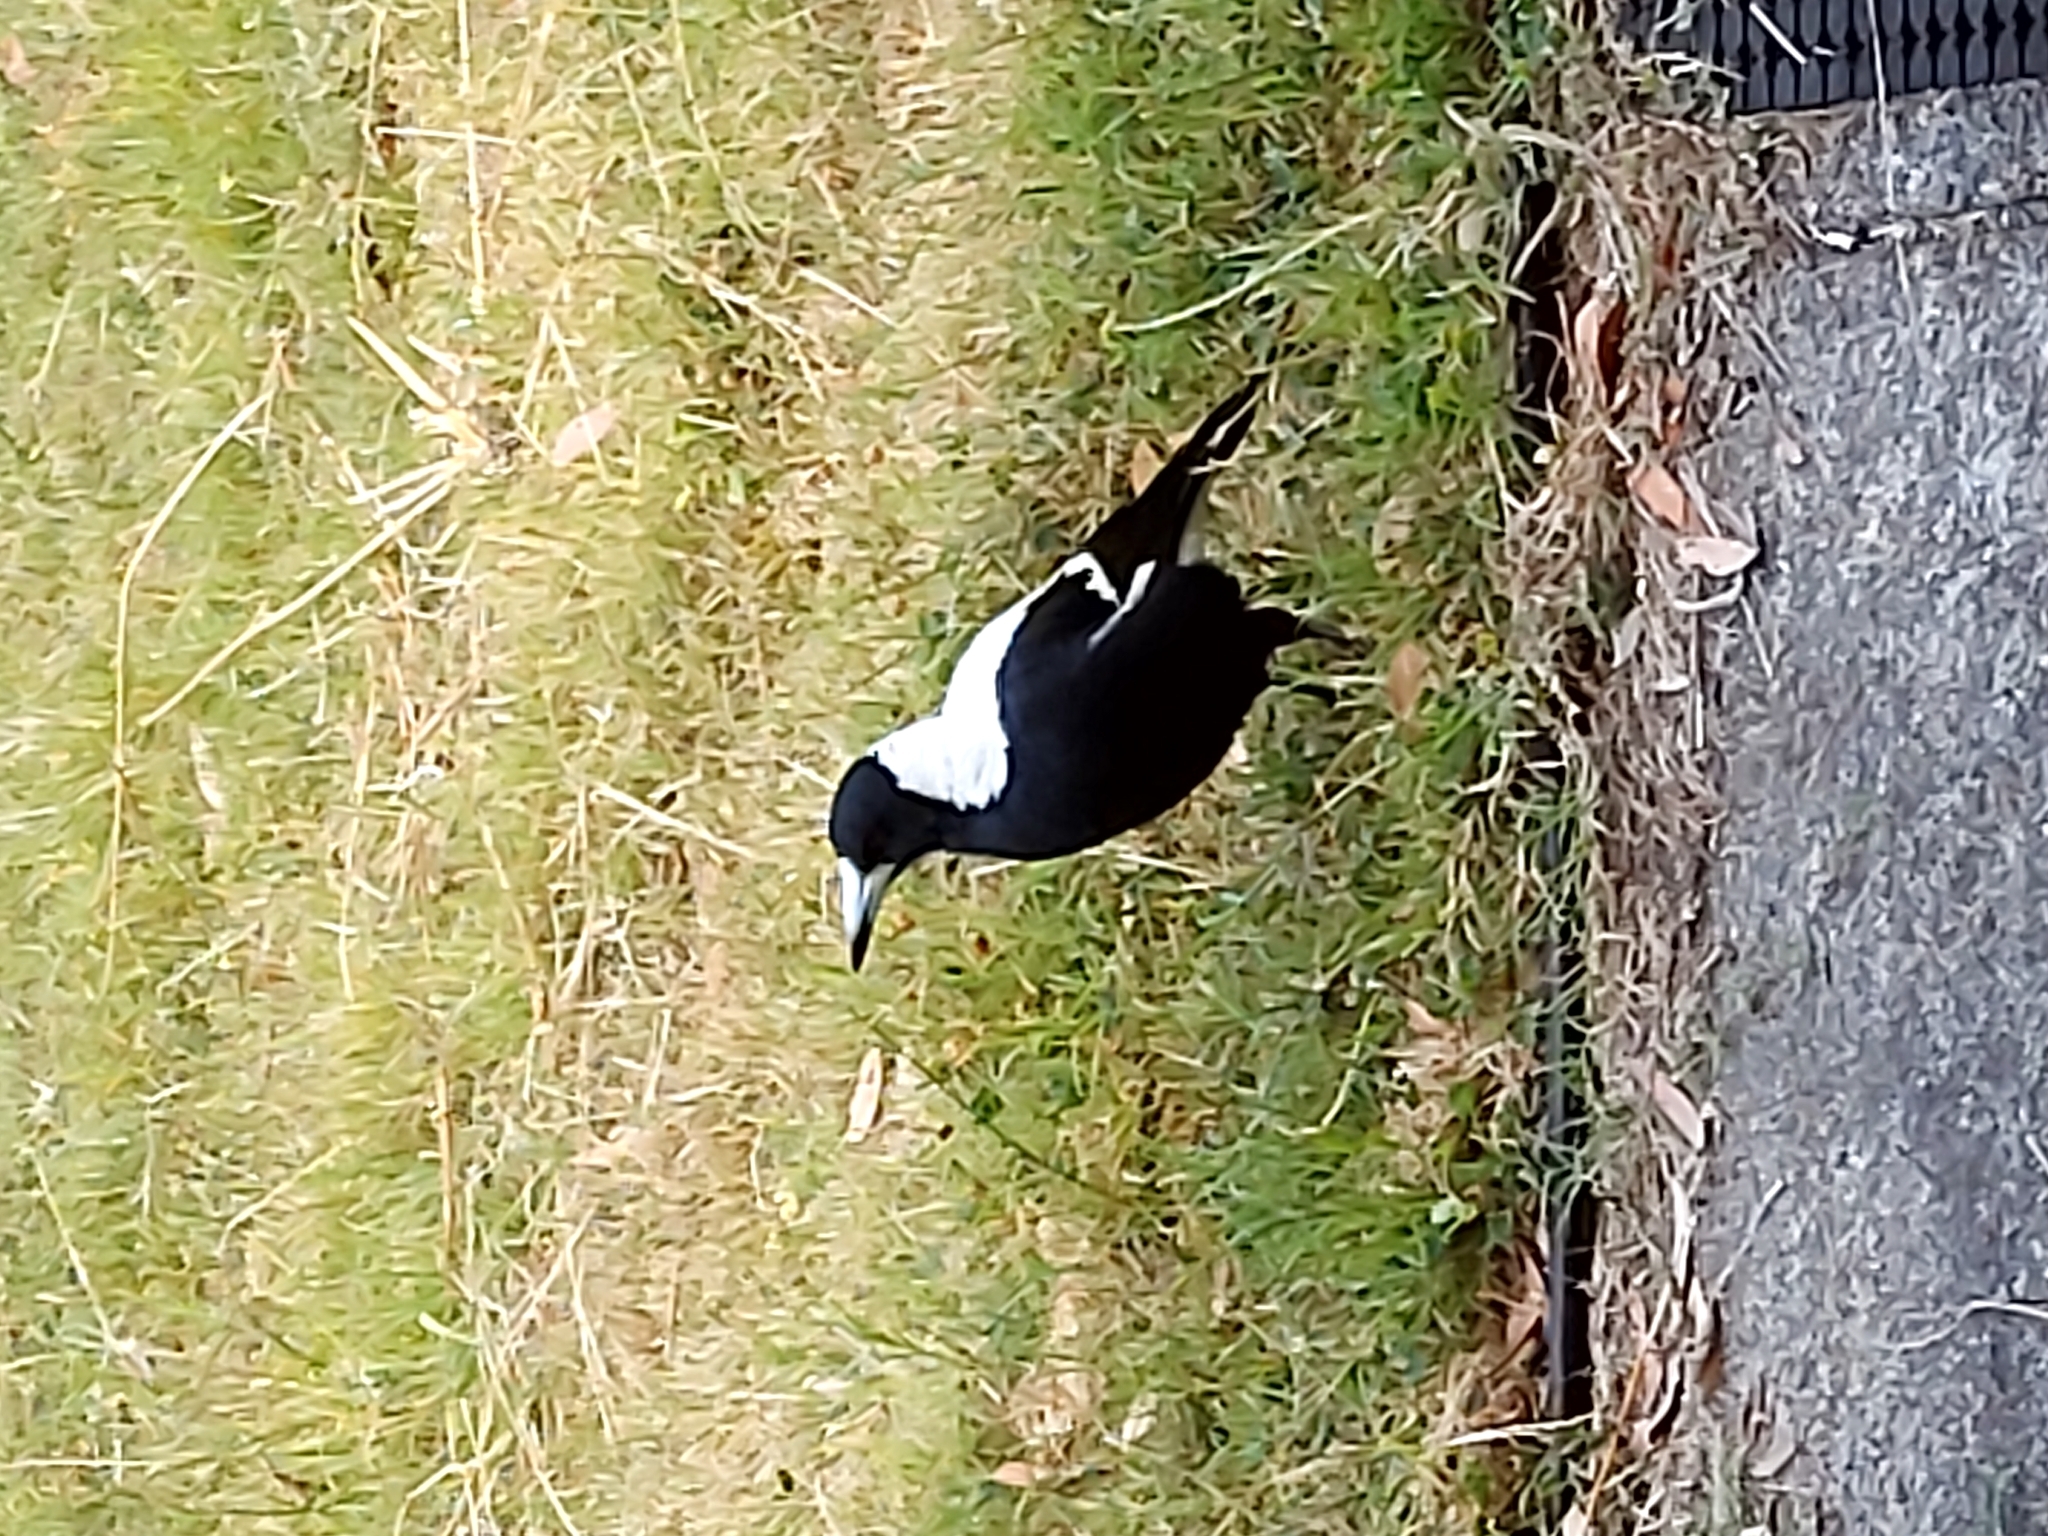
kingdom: Animalia
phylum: Chordata
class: Aves
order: Passeriformes
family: Cracticidae
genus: Gymnorhina
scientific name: Gymnorhina tibicen
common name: Australian magpie
